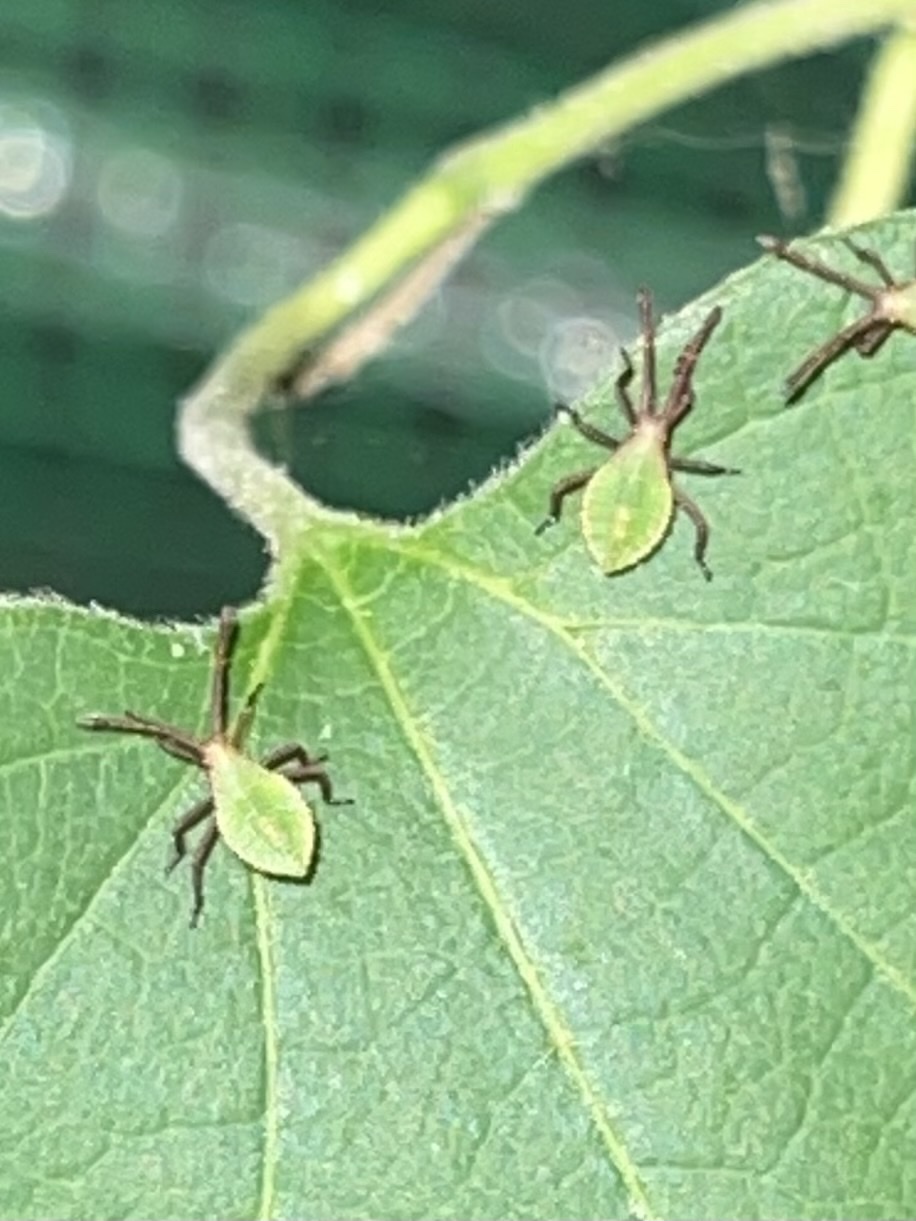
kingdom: Animalia
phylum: Arthropoda
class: Insecta
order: Hemiptera
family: Coreidae
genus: Piezogaster
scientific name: Piezogaster calcarator
